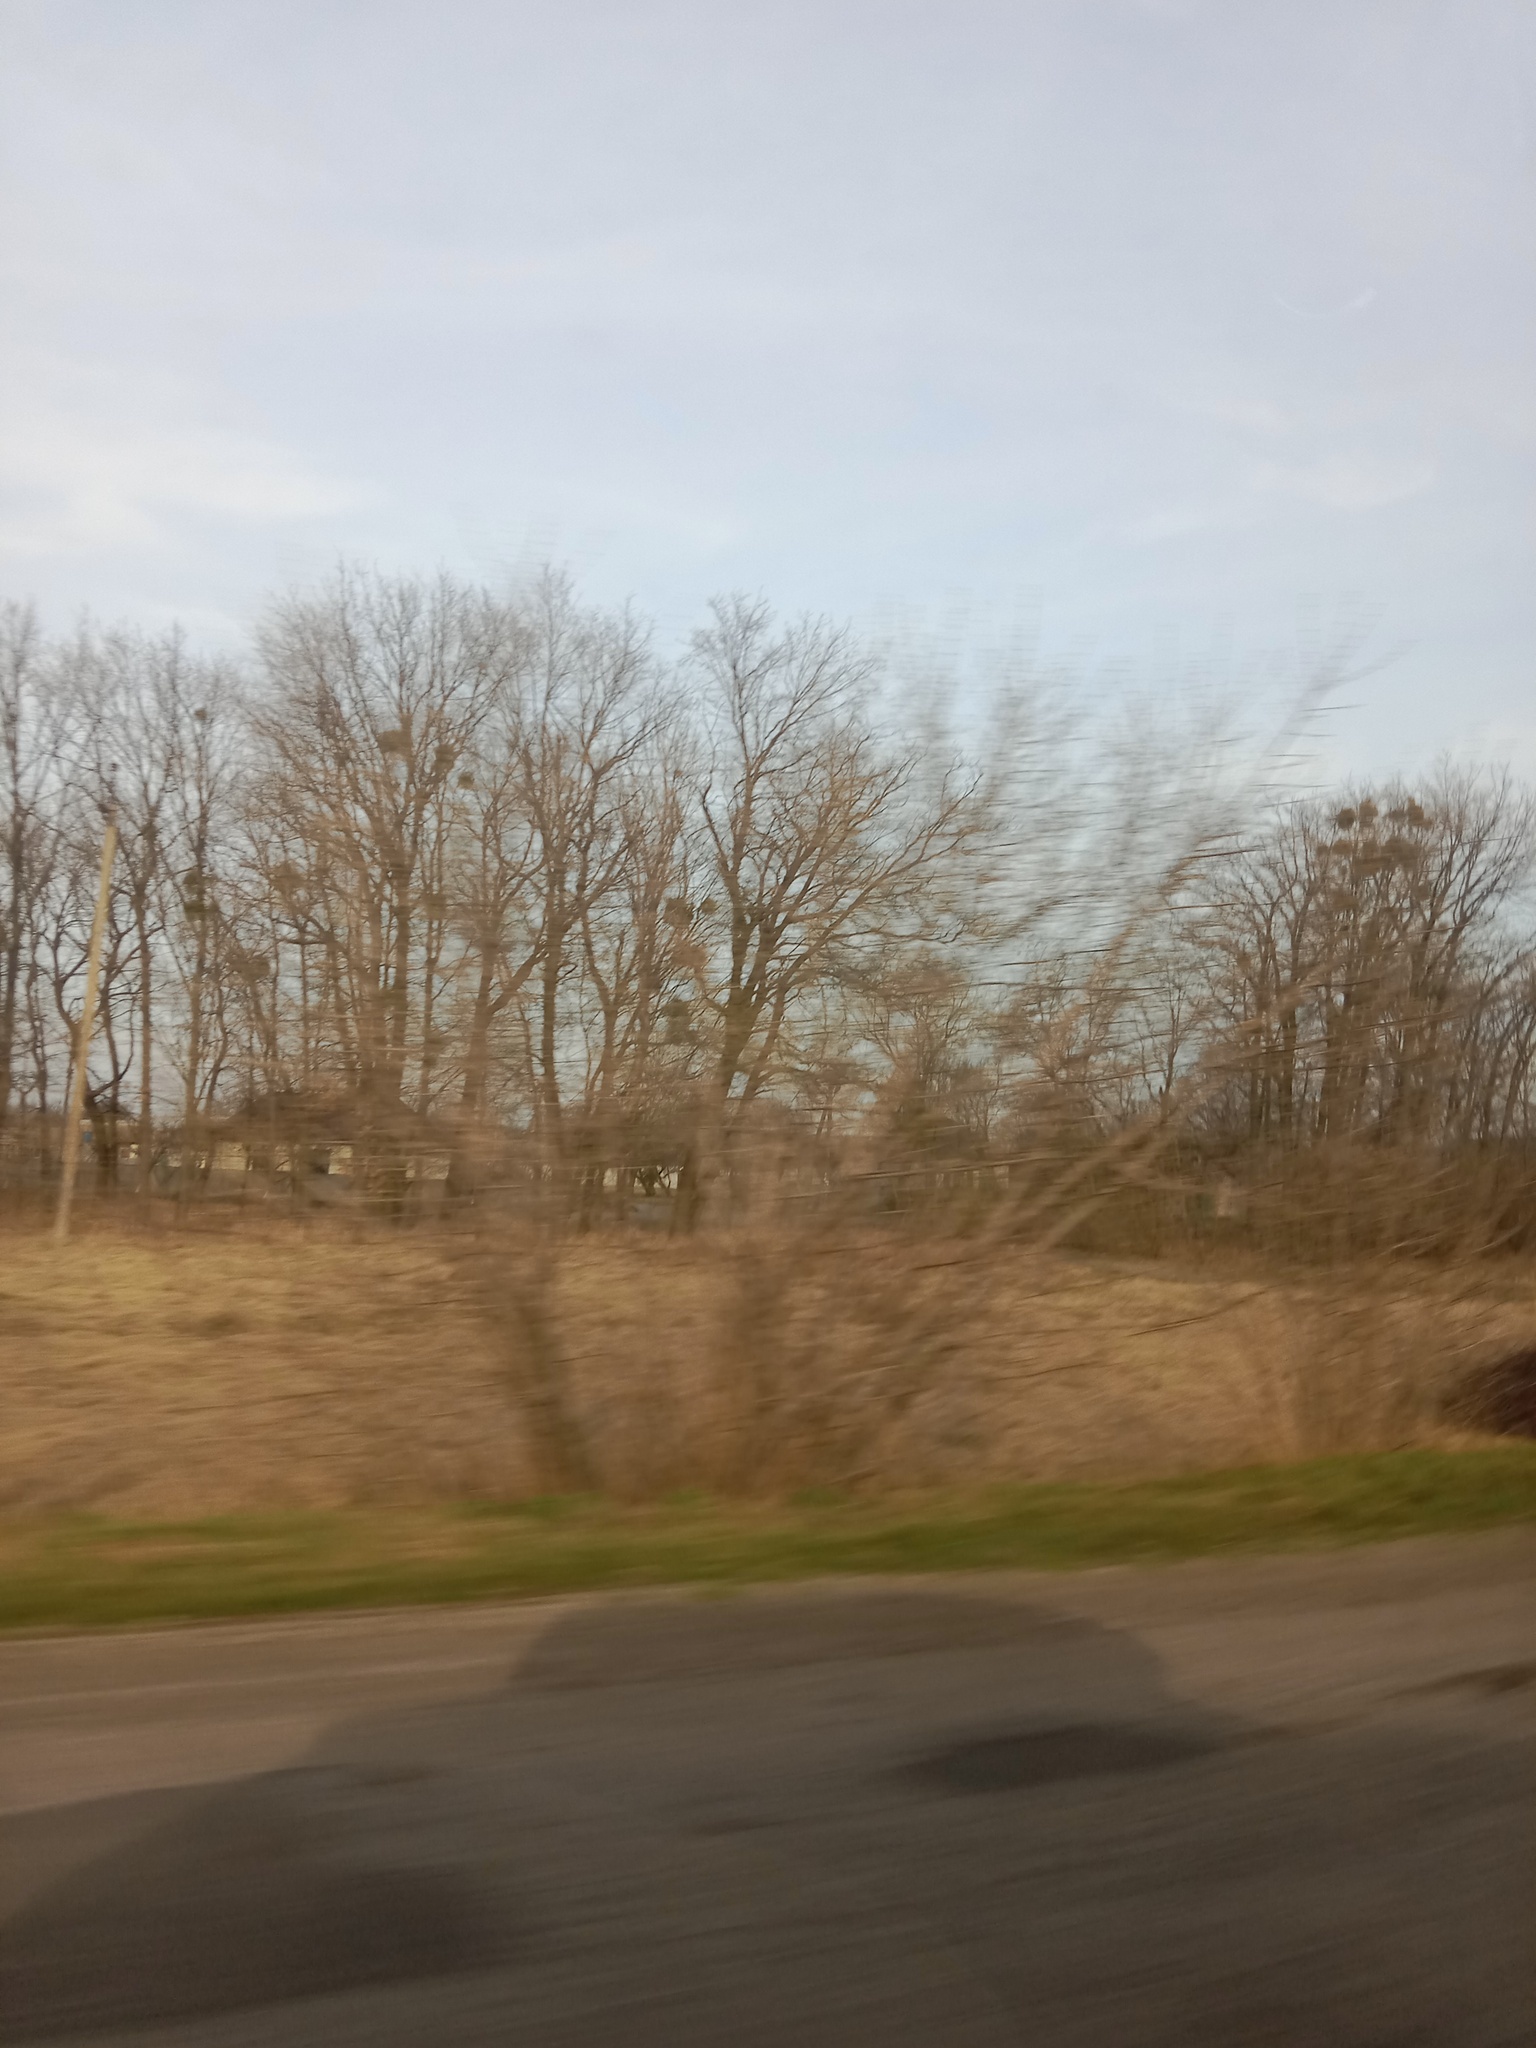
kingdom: Plantae
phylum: Tracheophyta
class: Magnoliopsida
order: Santalales
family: Viscaceae
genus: Viscum
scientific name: Viscum album
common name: Mistletoe
